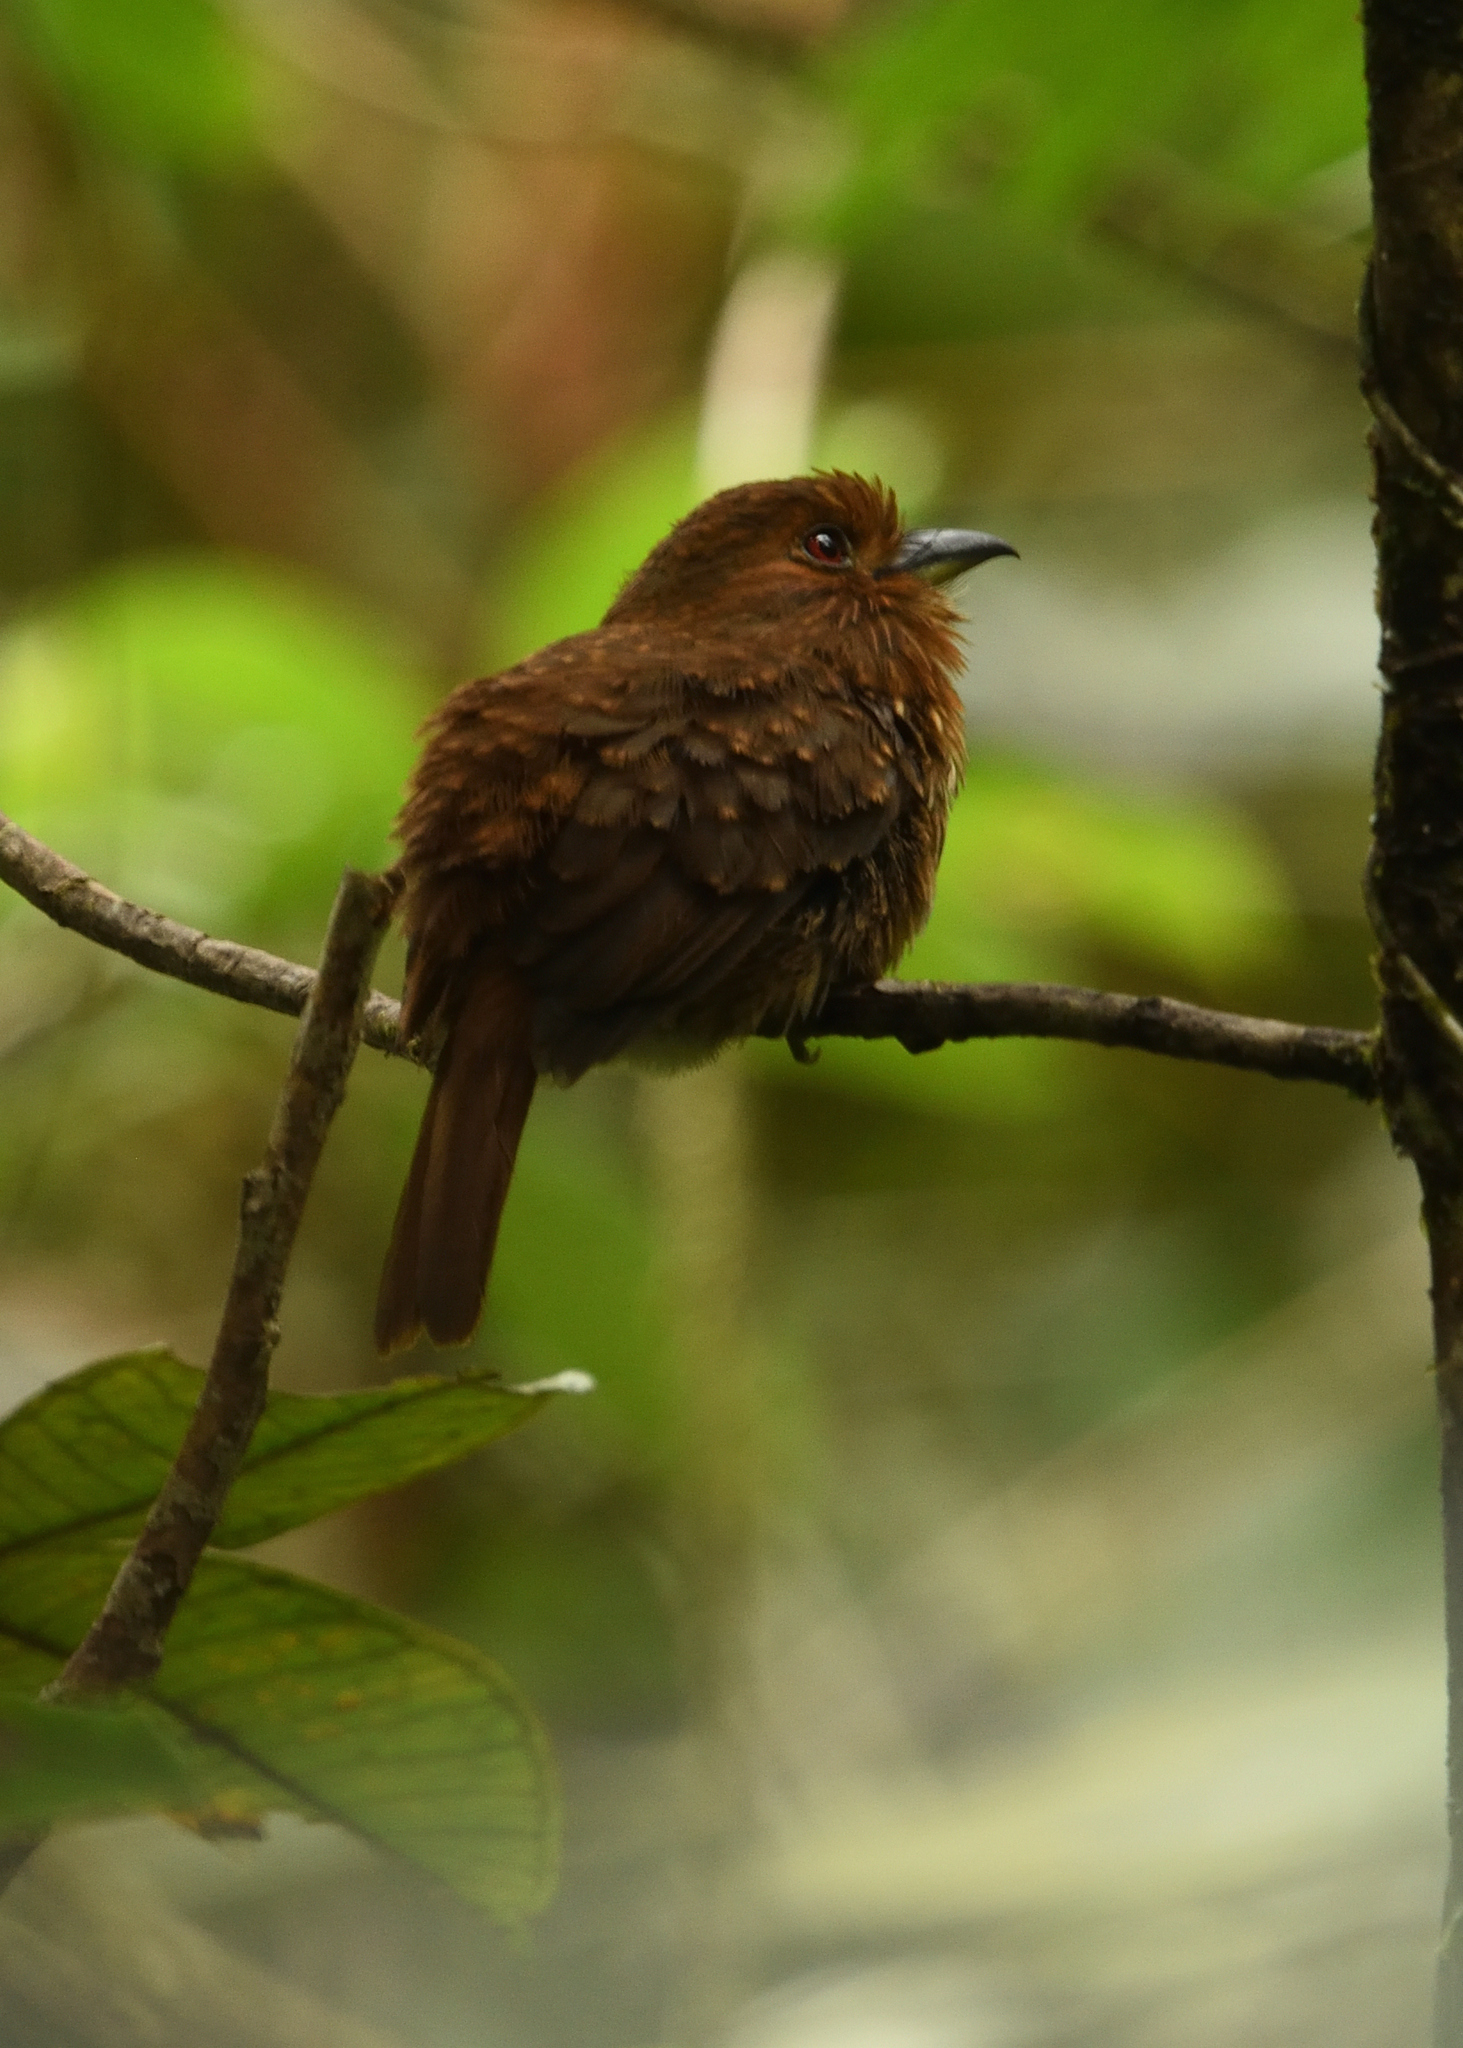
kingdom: Animalia
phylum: Chordata
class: Aves
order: Piciformes
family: Bucconidae
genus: Malacoptila
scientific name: Malacoptila panamensis
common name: White-whiskered puffbird
